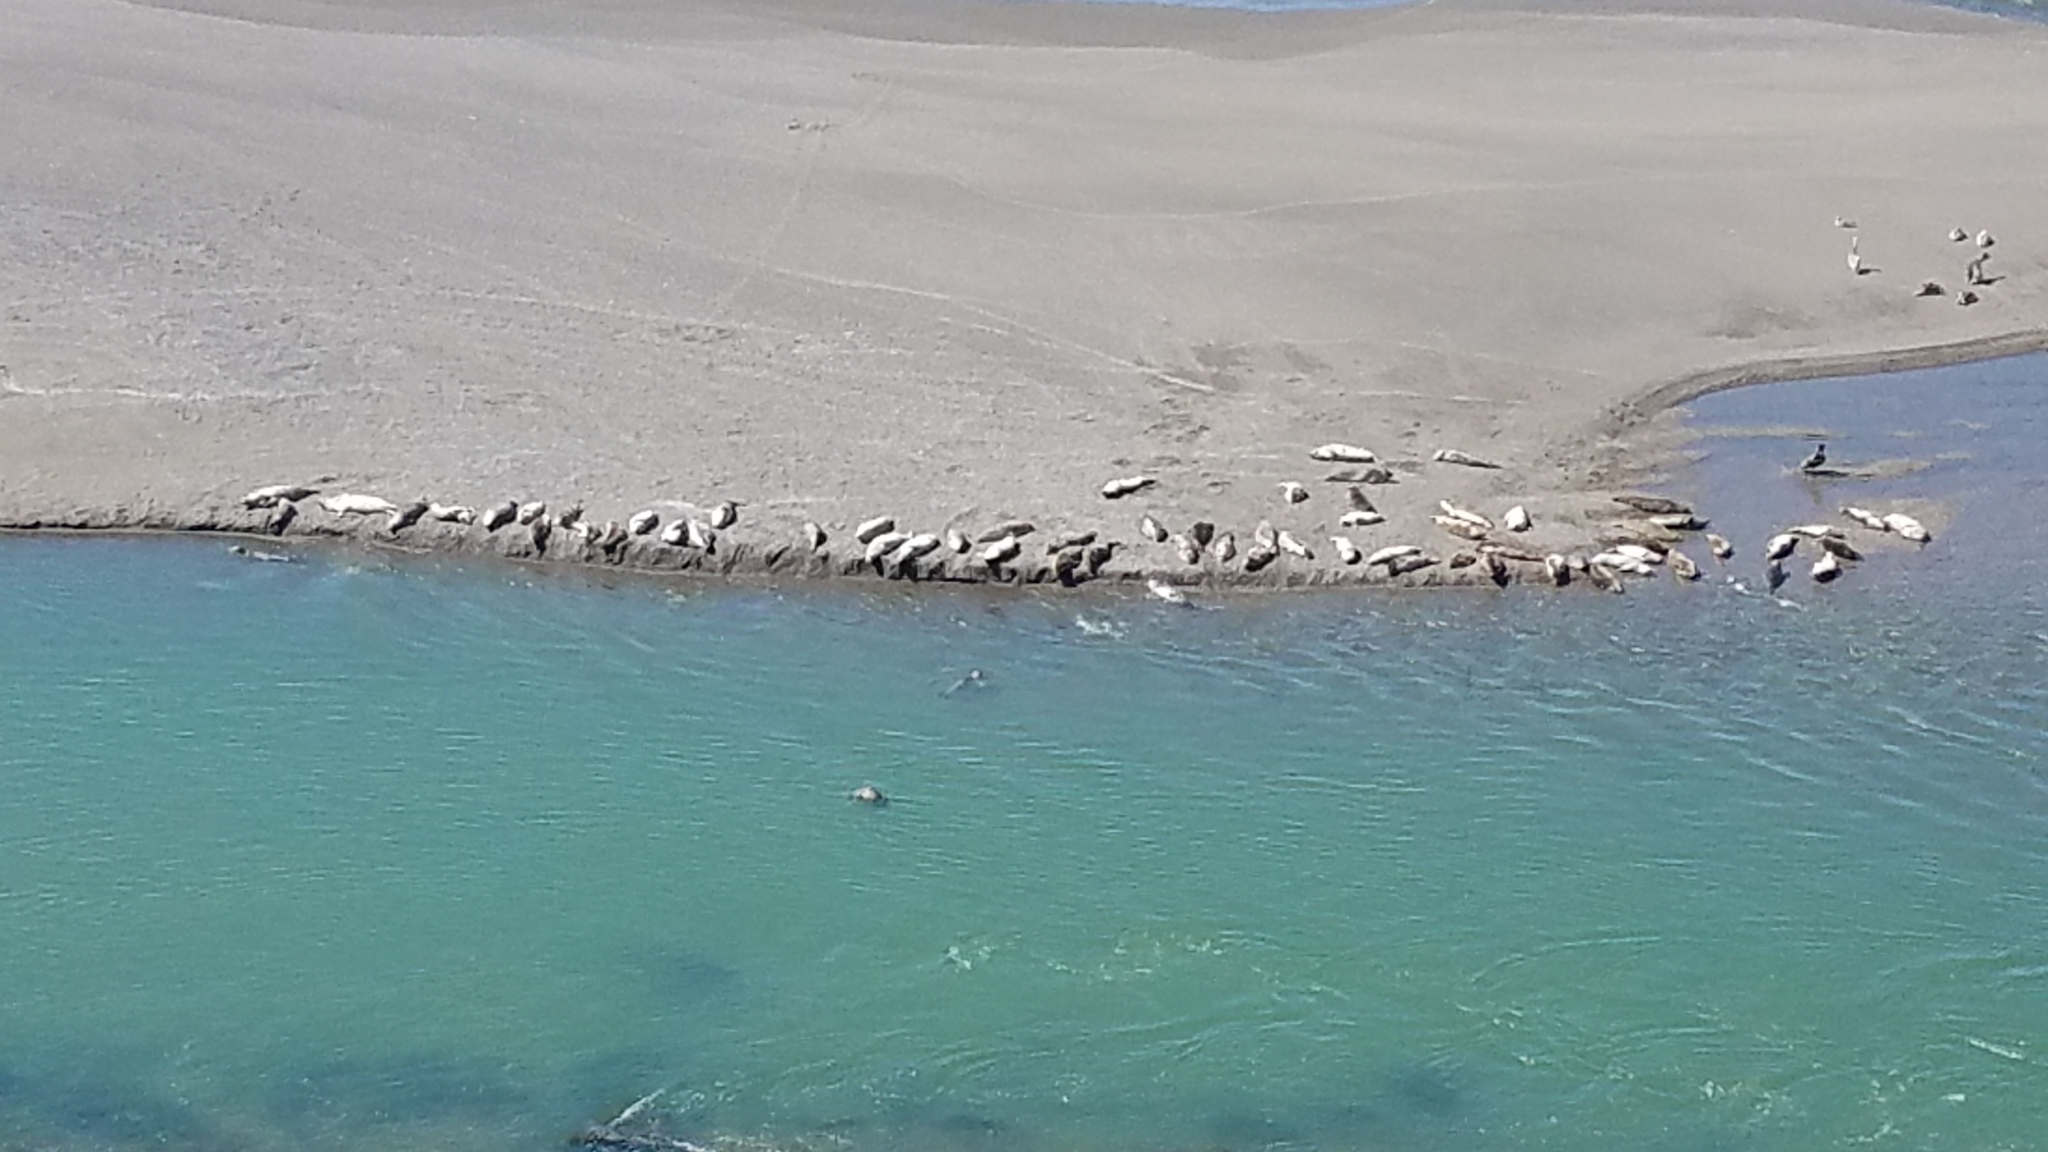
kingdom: Animalia
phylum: Chordata
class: Mammalia
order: Carnivora
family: Phocidae
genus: Phoca
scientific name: Phoca vitulina
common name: Harbor seal
